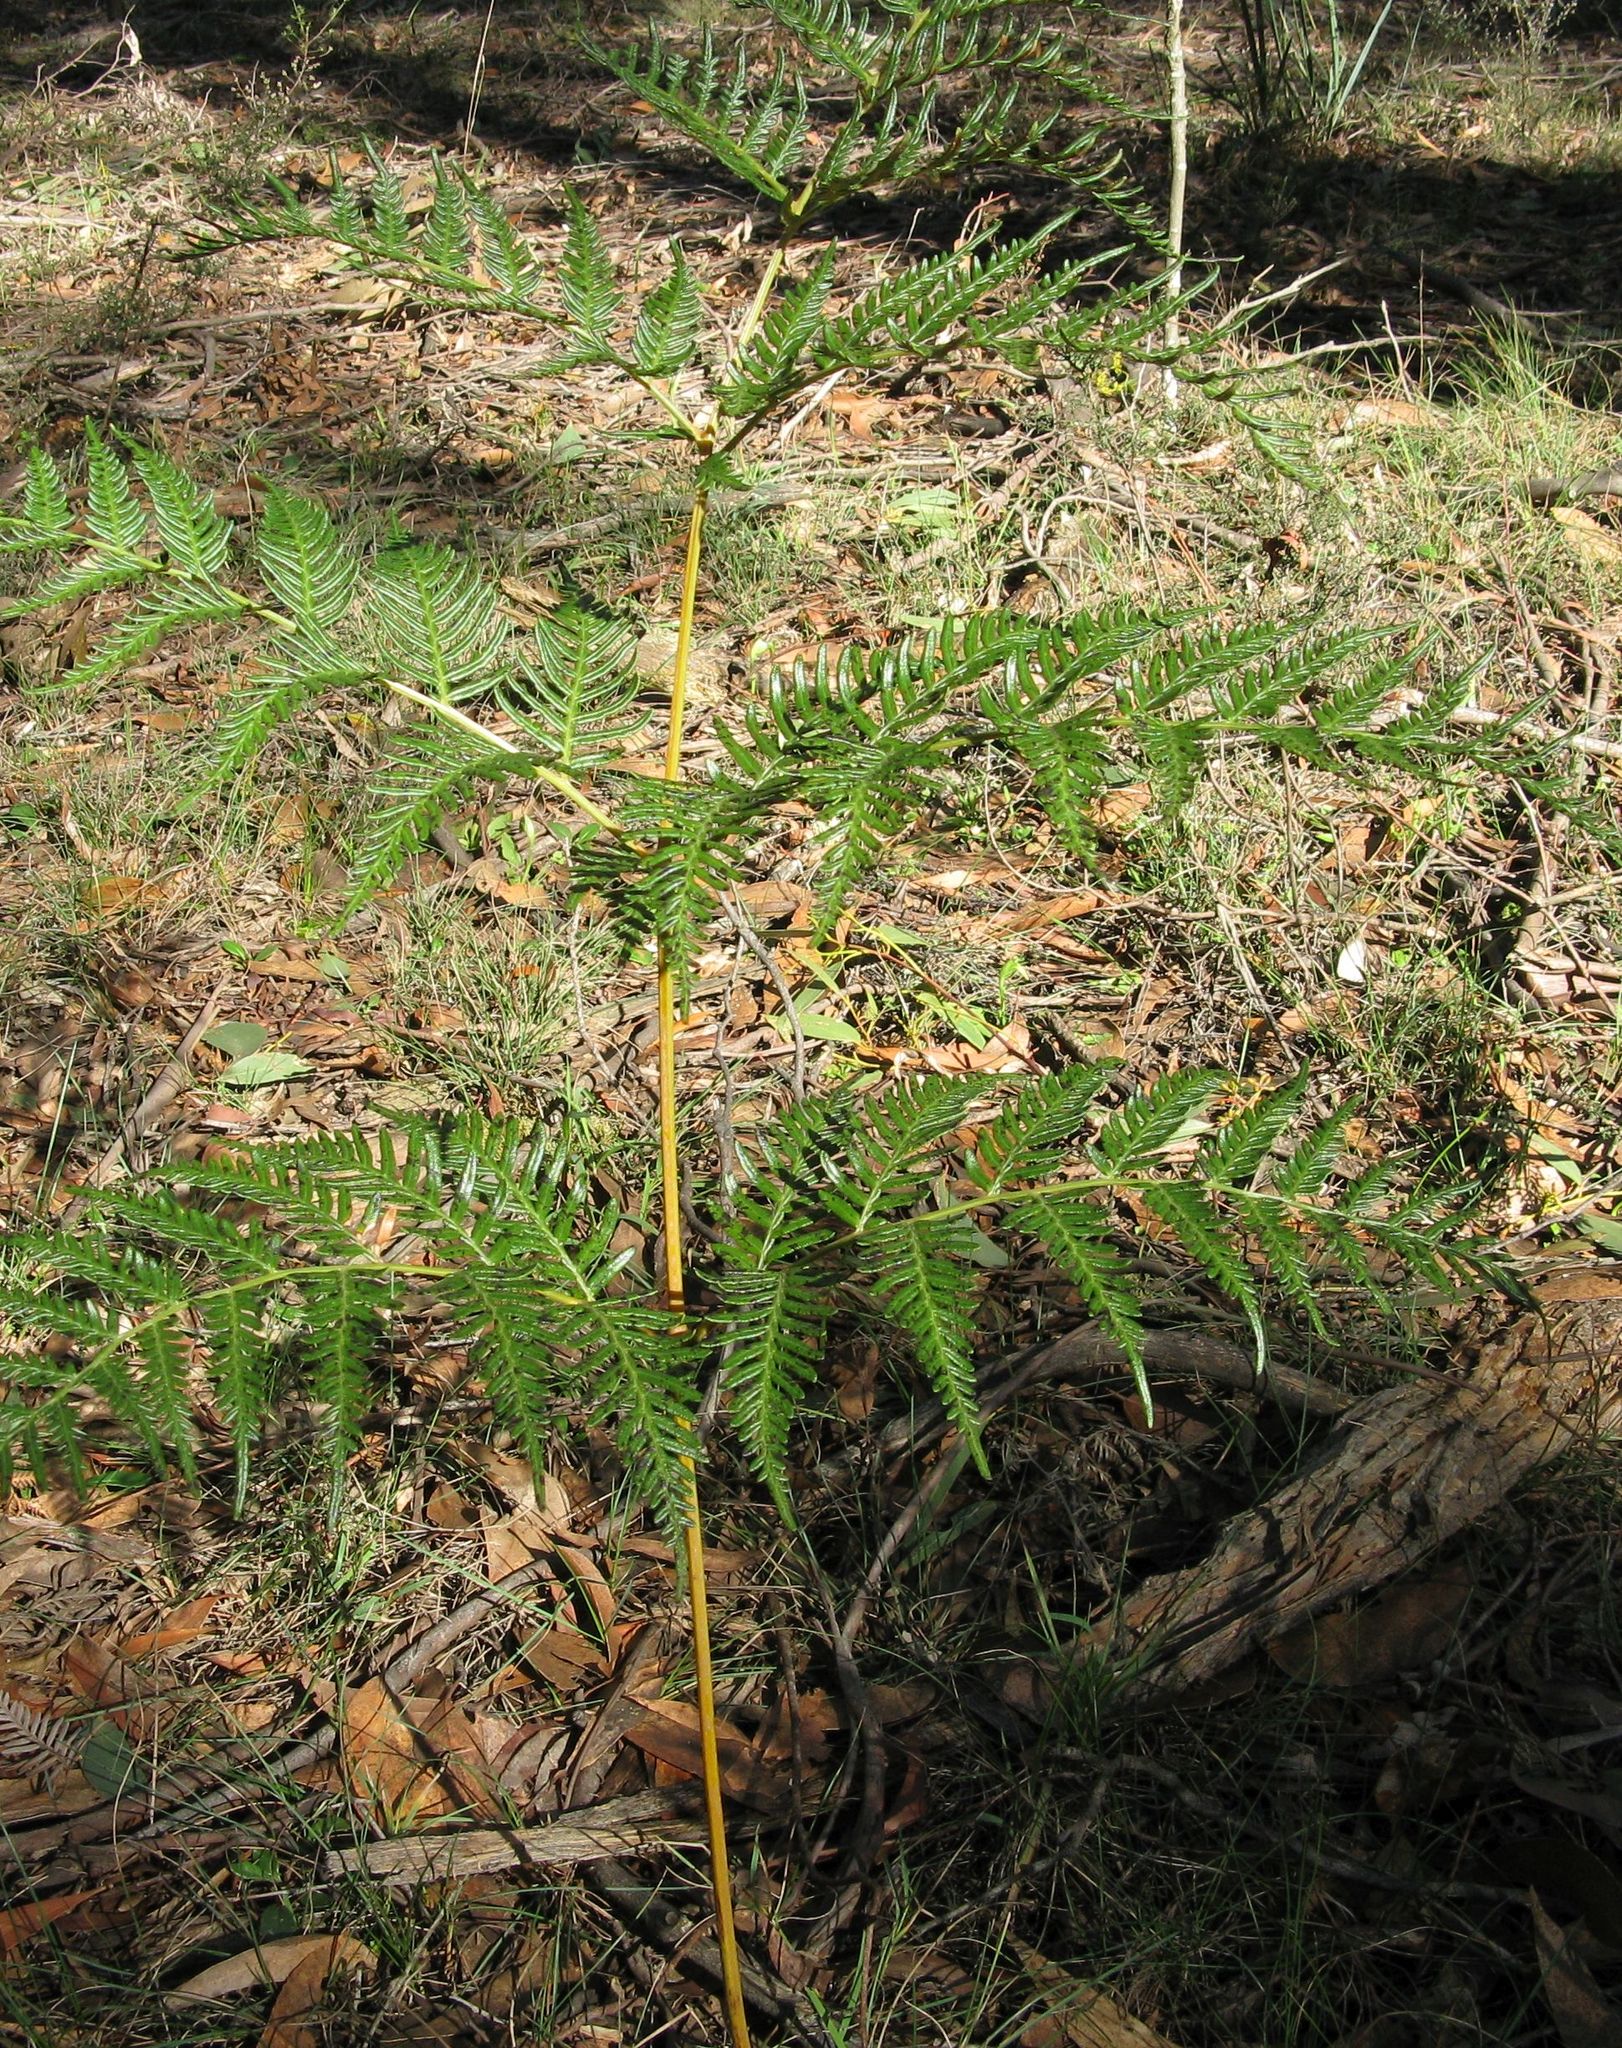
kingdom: Plantae
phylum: Tracheophyta
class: Polypodiopsida
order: Polypodiales
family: Dennstaedtiaceae
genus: Pteridium
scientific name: Pteridium esculentum
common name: Bracken fern
